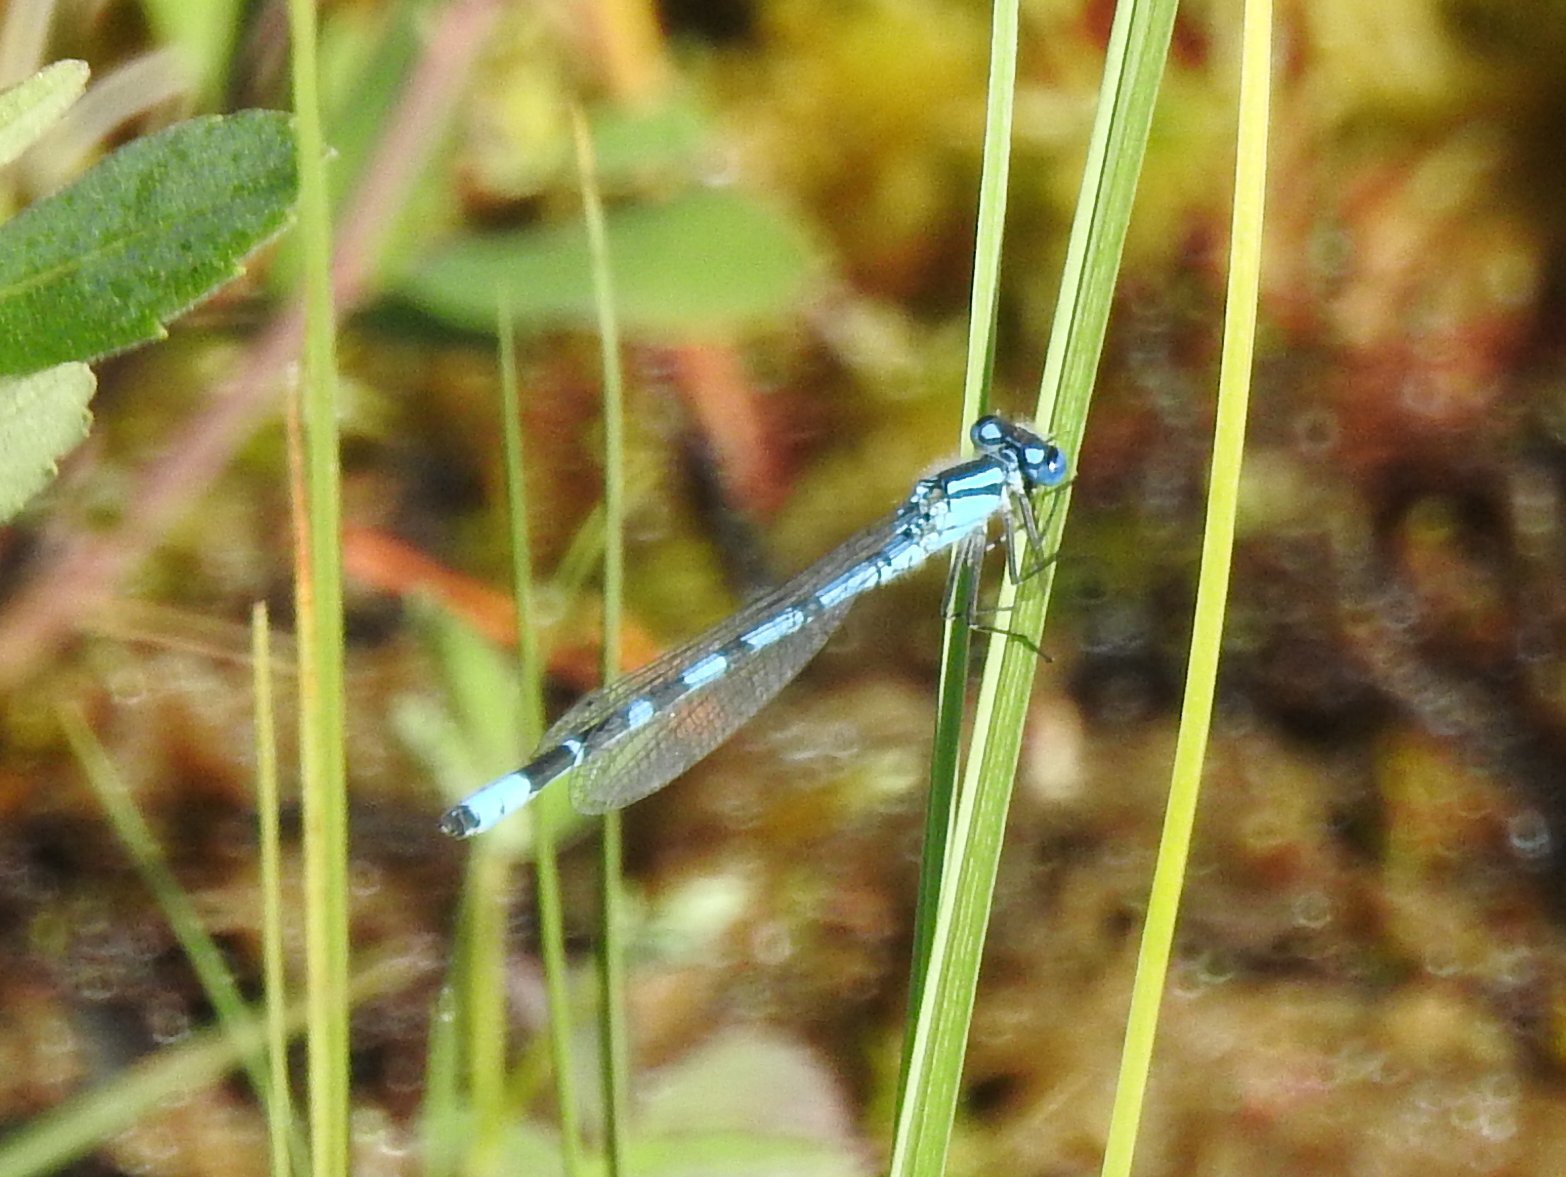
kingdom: Animalia
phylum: Arthropoda
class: Insecta
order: Odonata
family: Coenagrionidae
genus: Enallagma
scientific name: Enallagma cyathigerum
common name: Common blue damselfly
